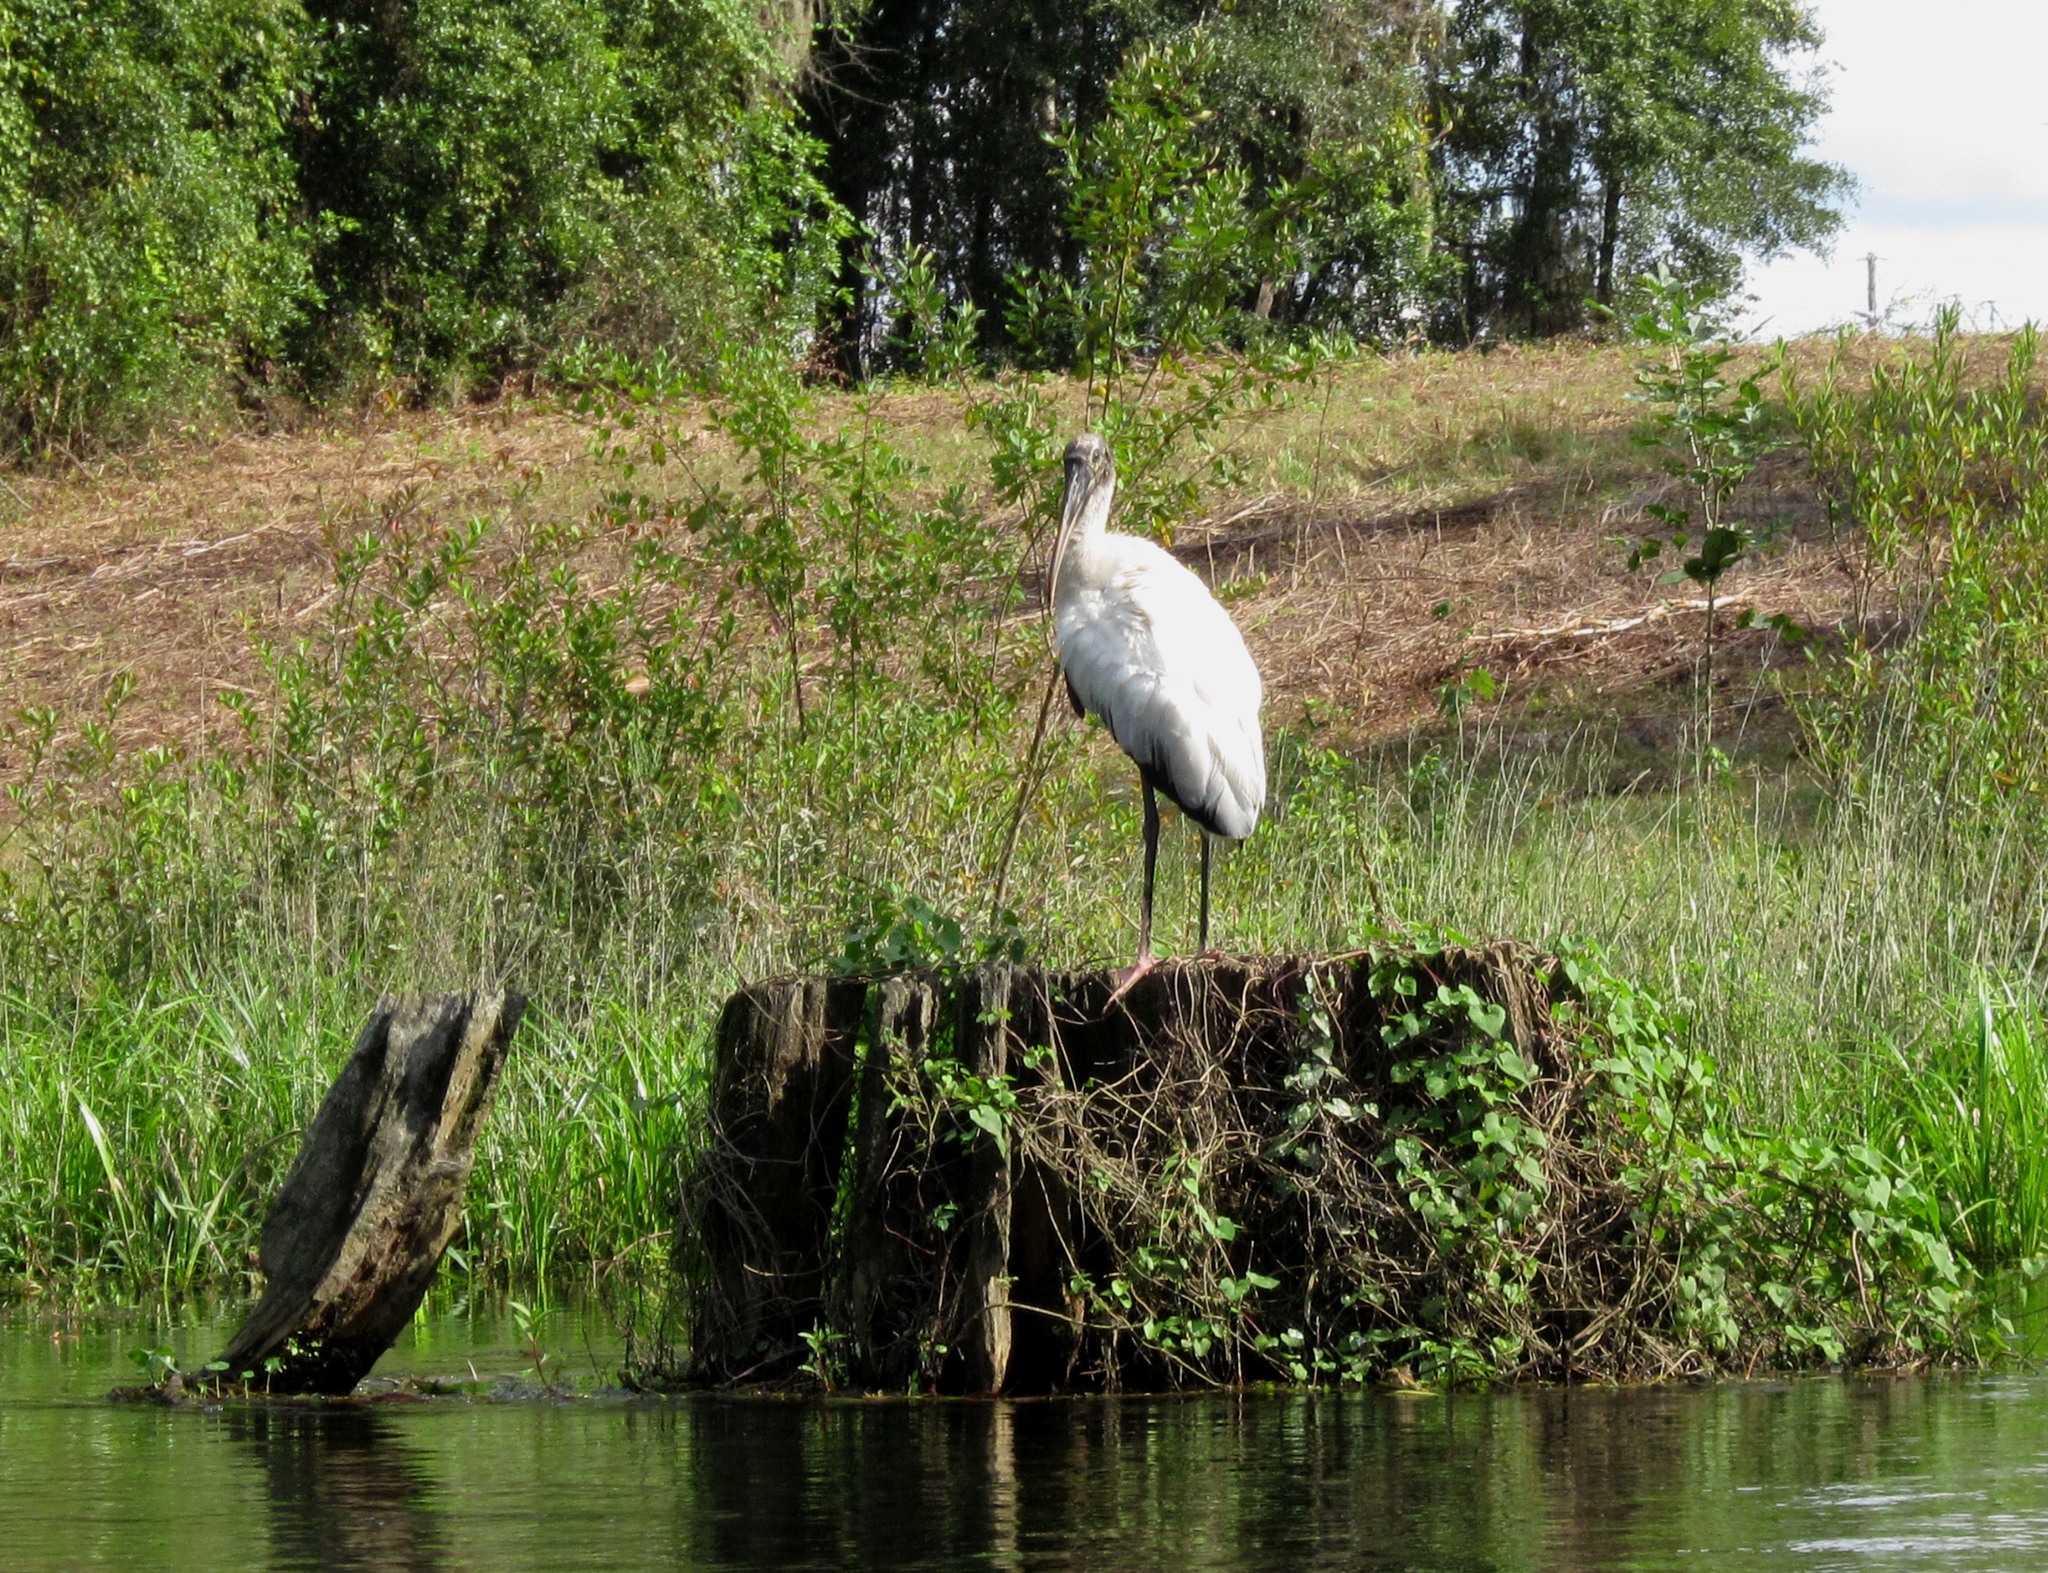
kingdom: Animalia
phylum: Chordata
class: Aves
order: Ciconiiformes
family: Ciconiidae
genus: Mycteria
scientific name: Mycteria americana
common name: Wood stork
